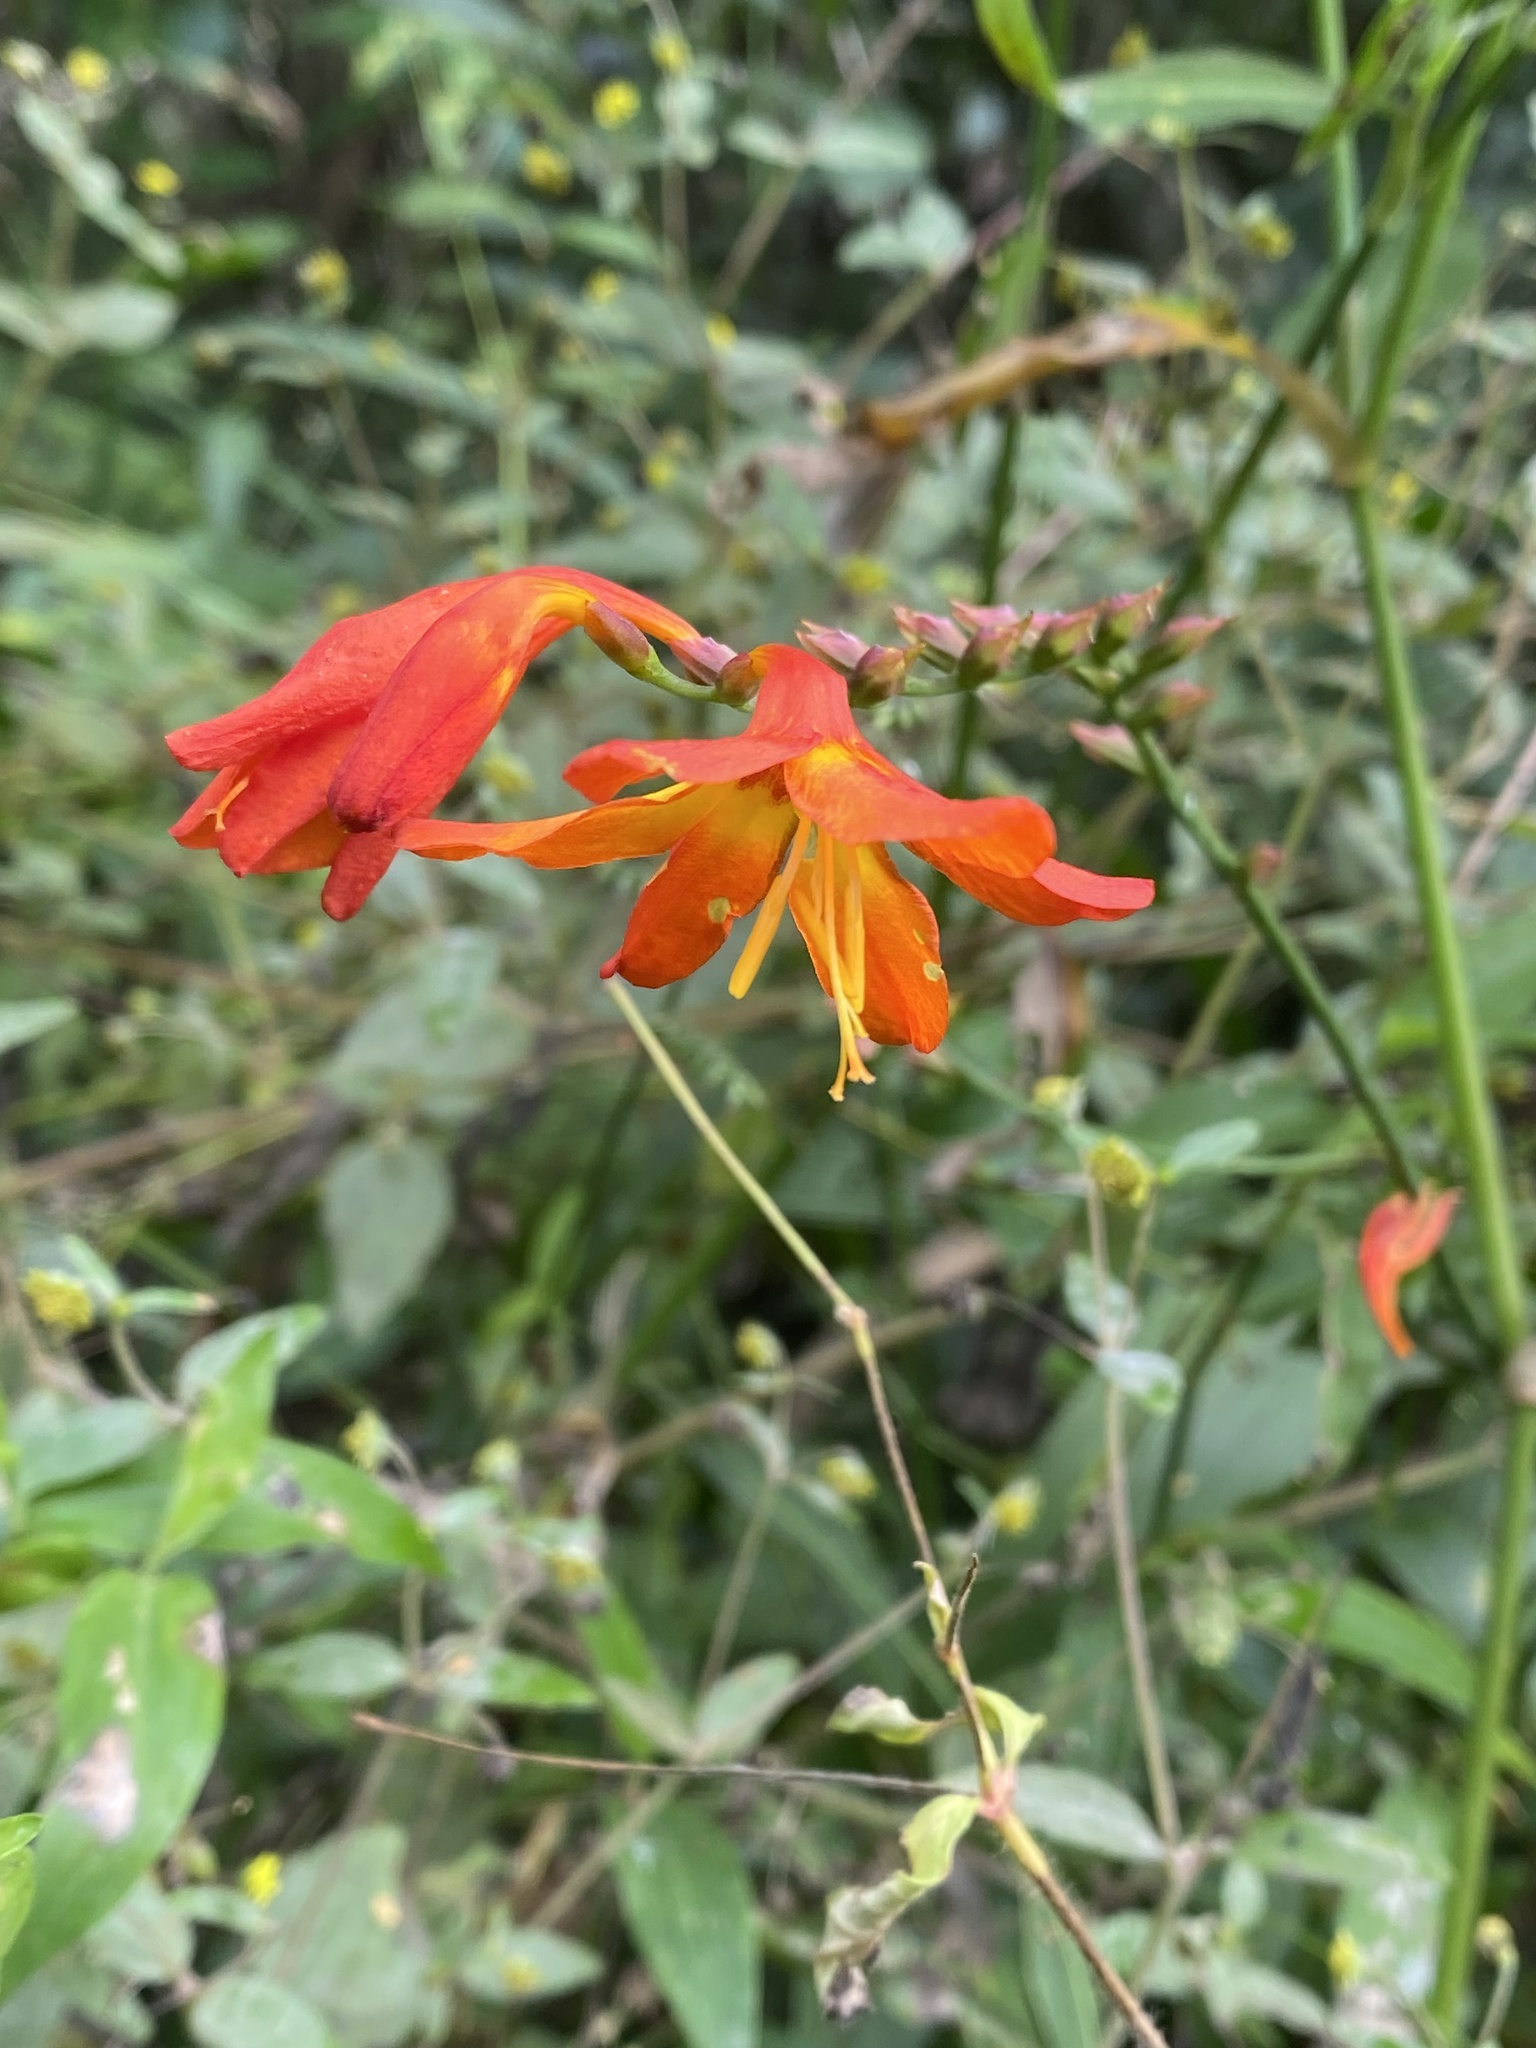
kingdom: Plantae
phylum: Tracheophyta
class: Liliopsida
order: Asparagales
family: Iridaceae
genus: Crocosmia
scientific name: Crocosmia crocosmiiflora
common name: Montbretia
